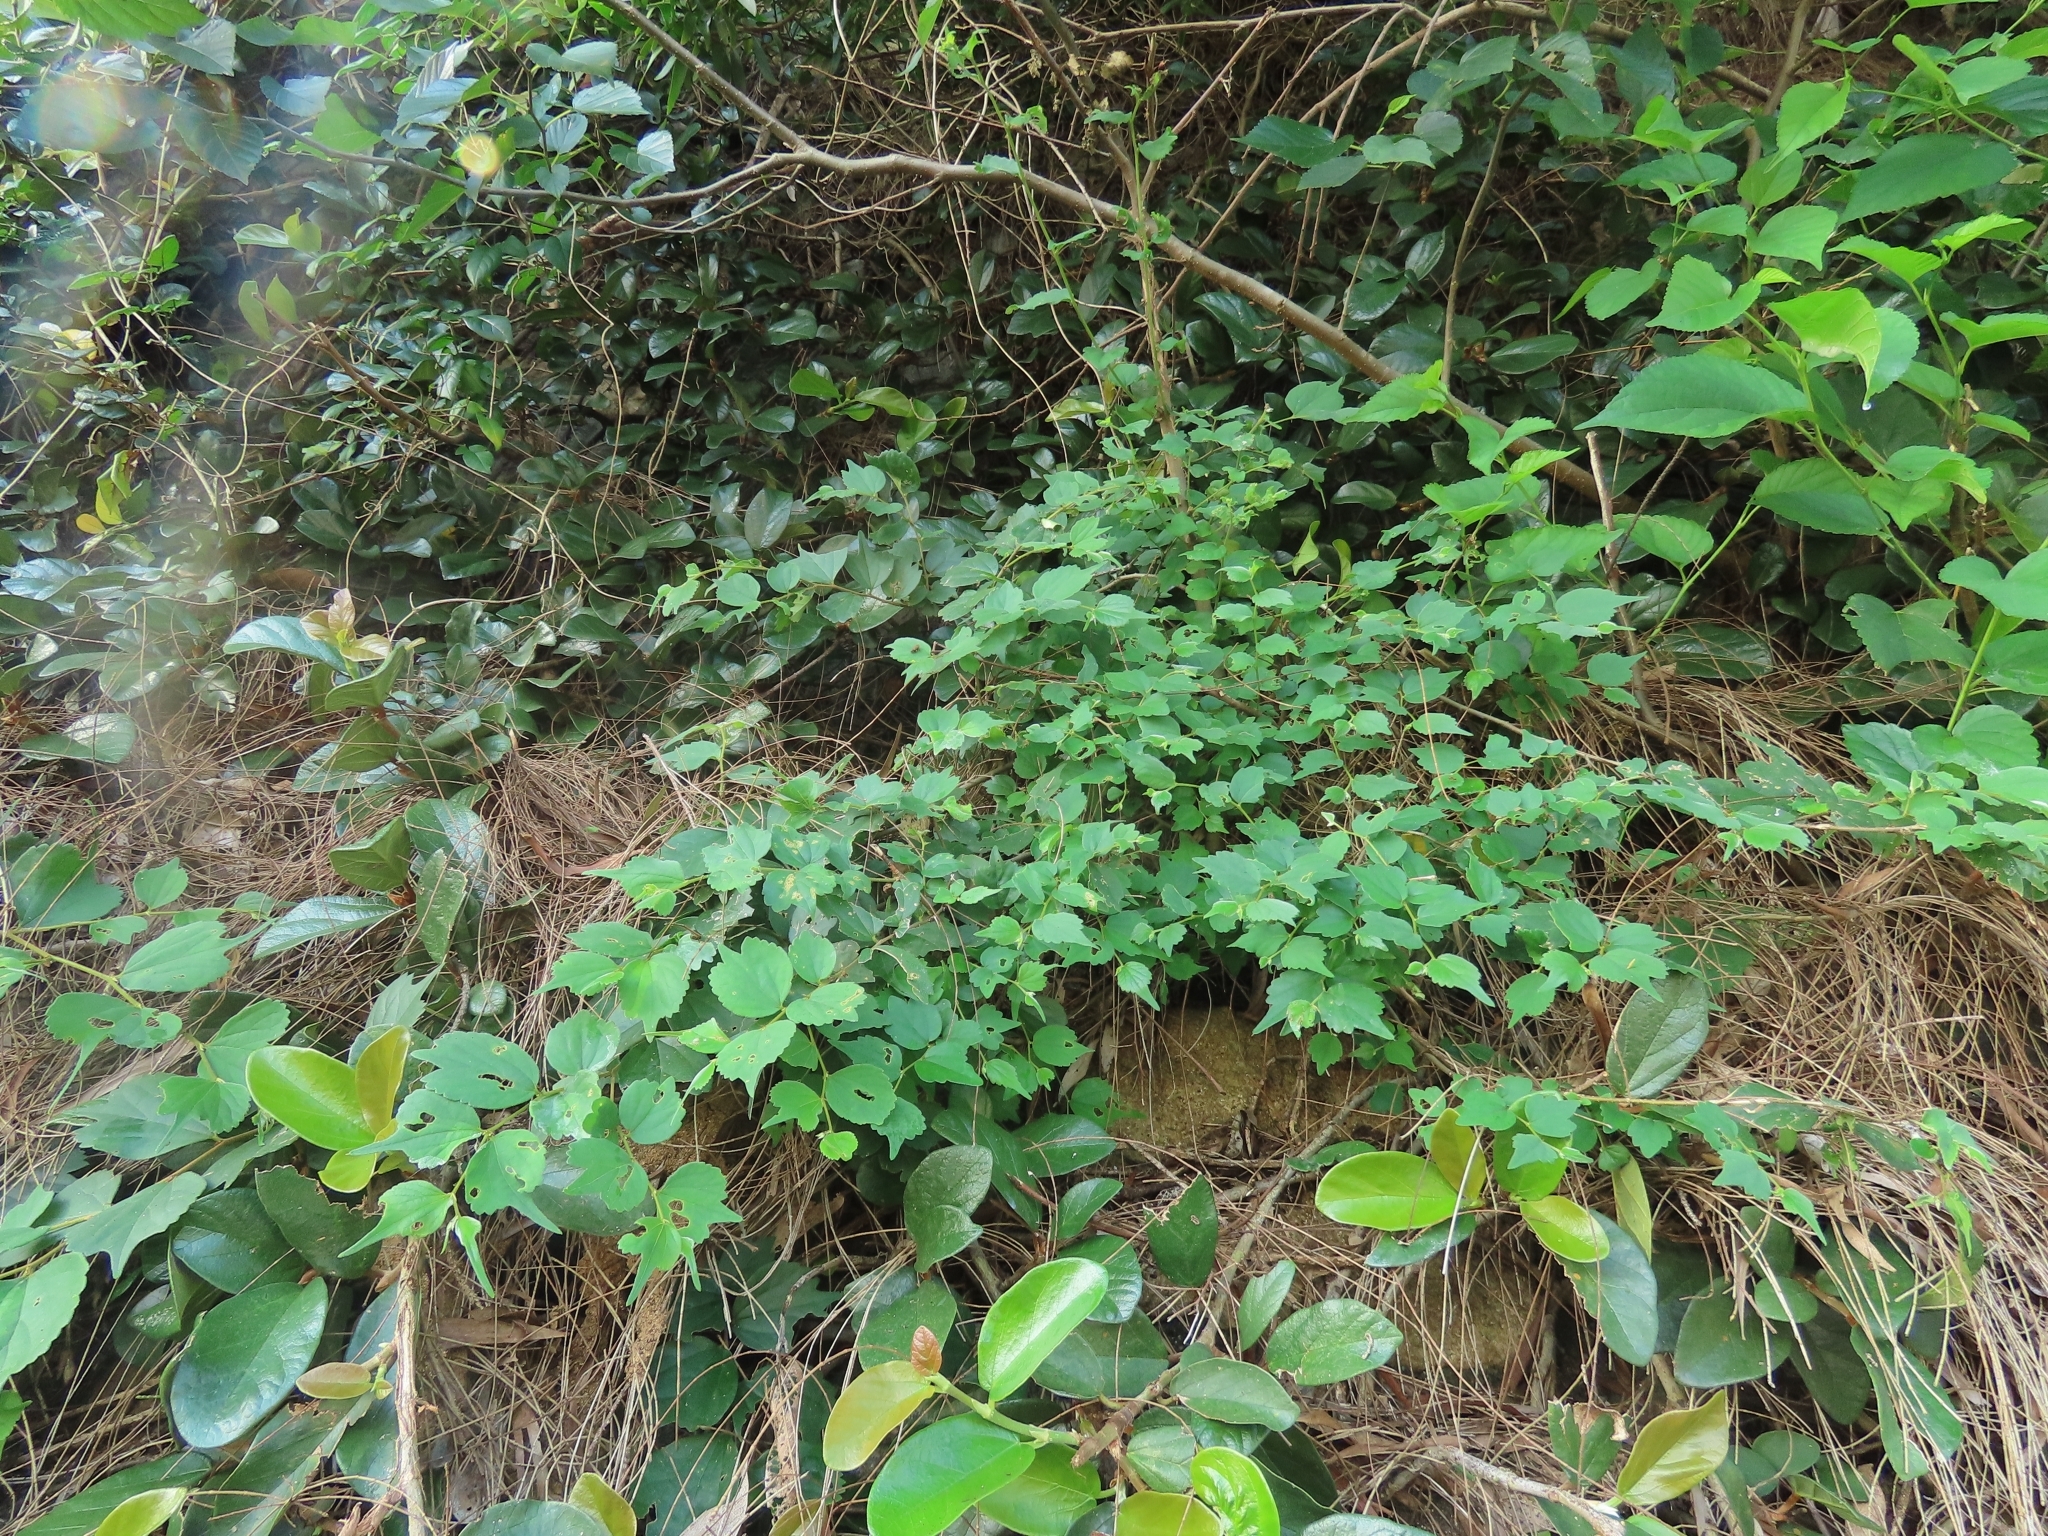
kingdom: Plantae
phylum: Tracheophyta
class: Magnoliopsida
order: Rosales
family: Cannabaceae
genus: Celtis
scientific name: Celtis biondii
